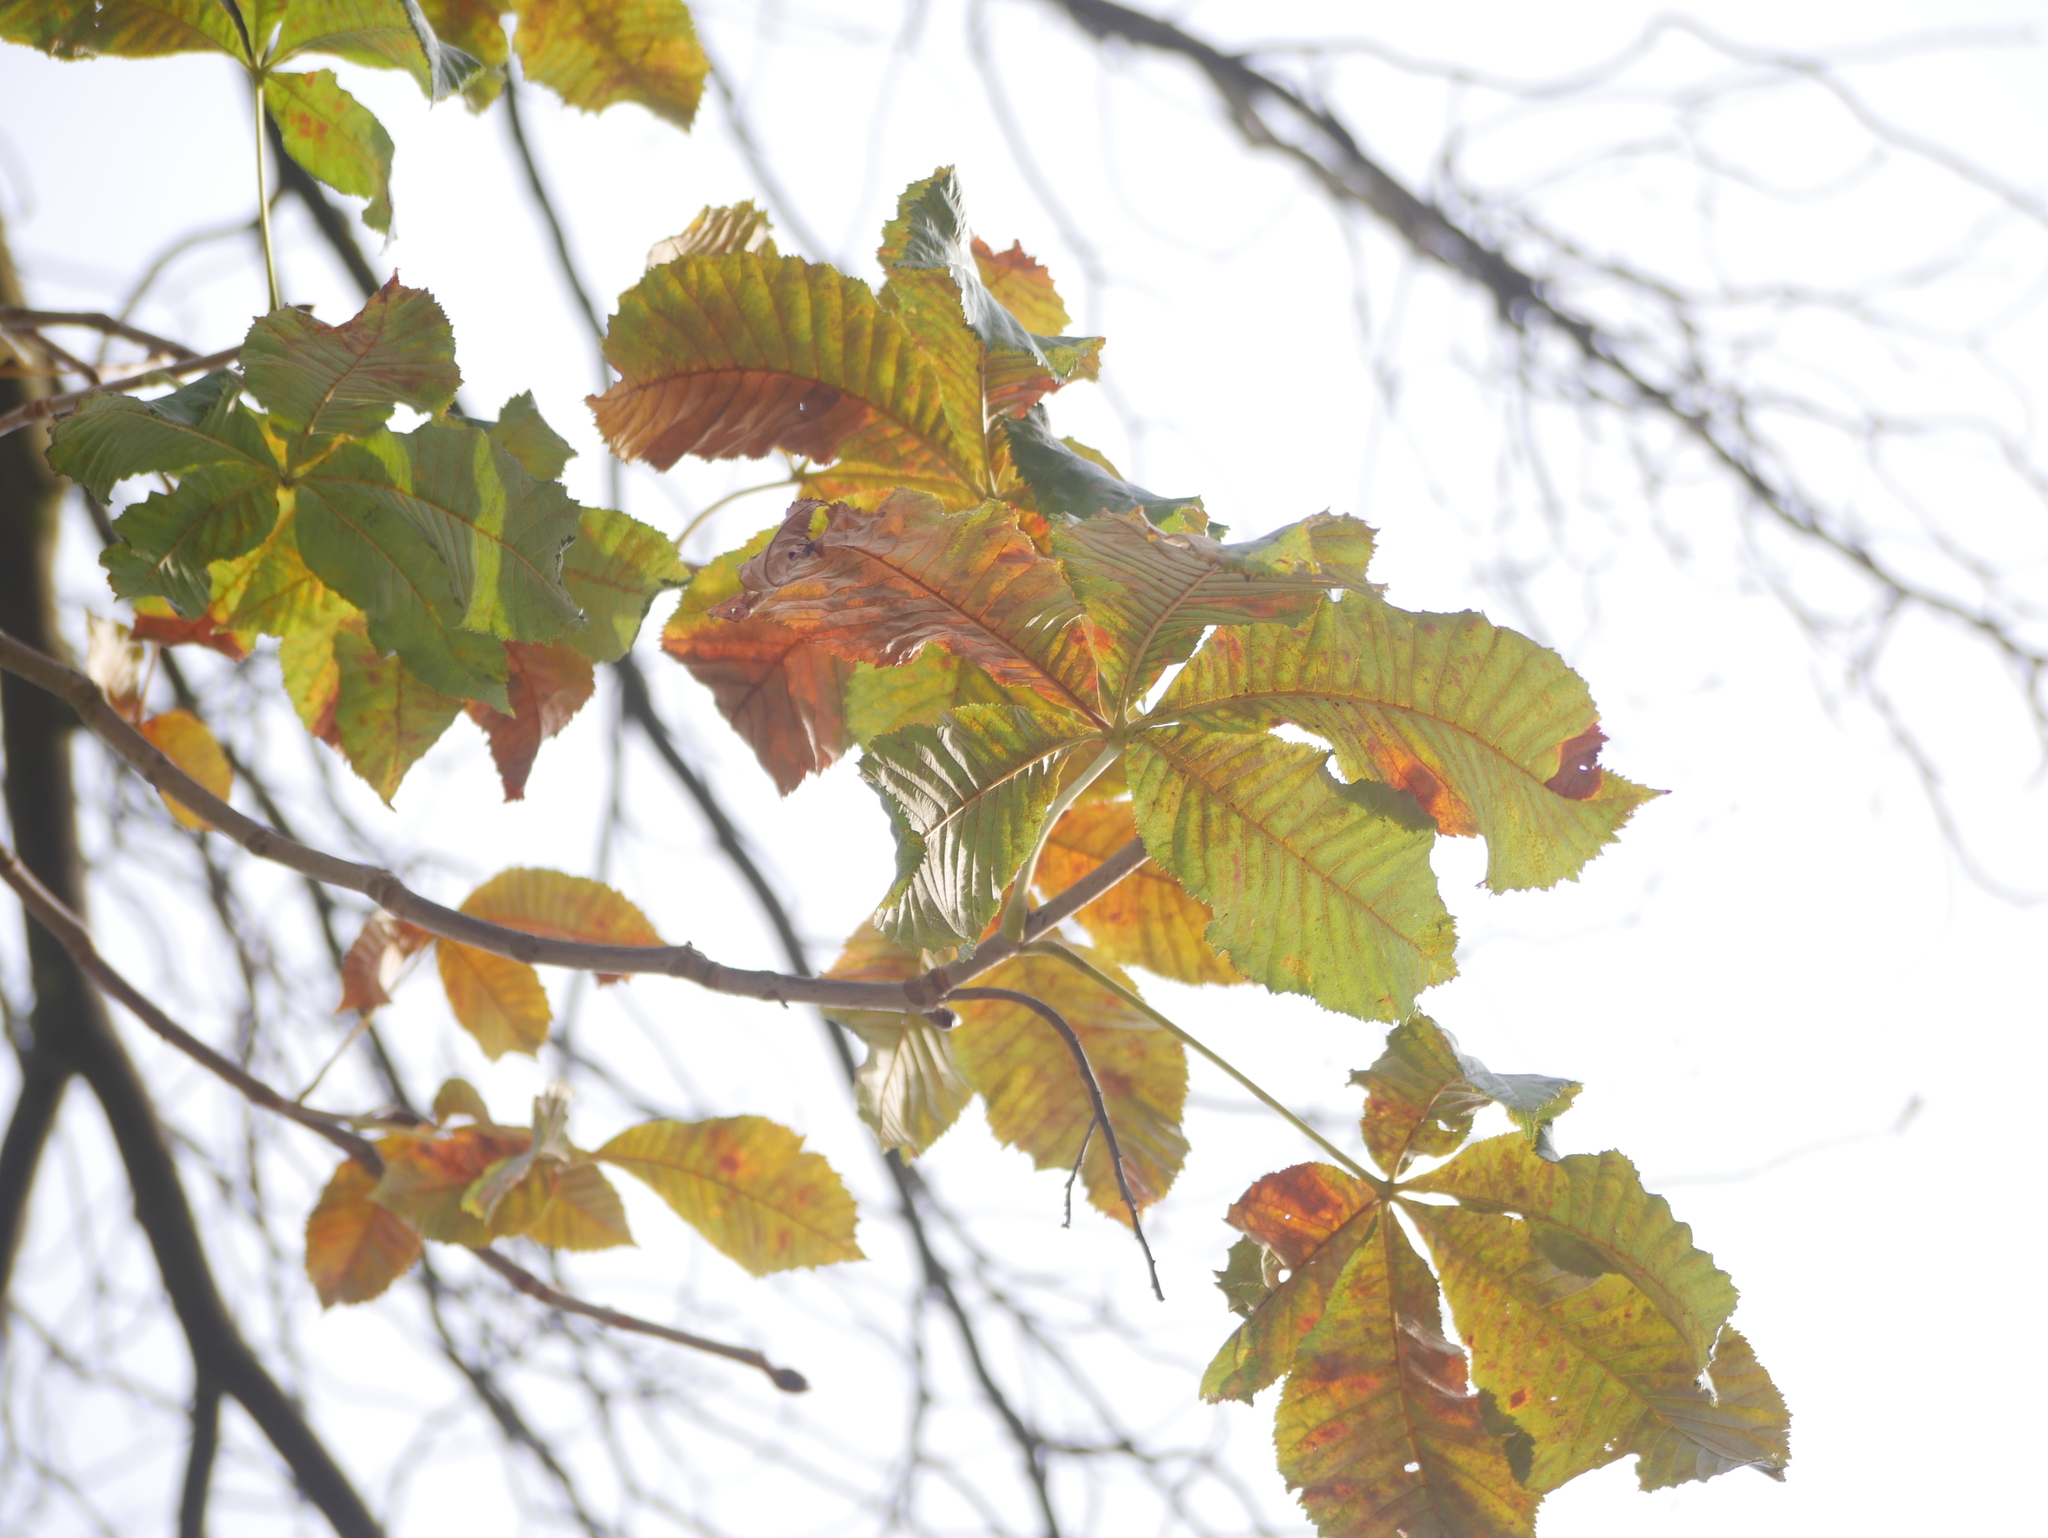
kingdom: Plantae
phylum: Tracheophyta
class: Magnoliopsida
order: Sapindales
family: Sapindaceae
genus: Aesculus
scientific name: Aesculus hippocastanum
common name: Horse-chestnut
